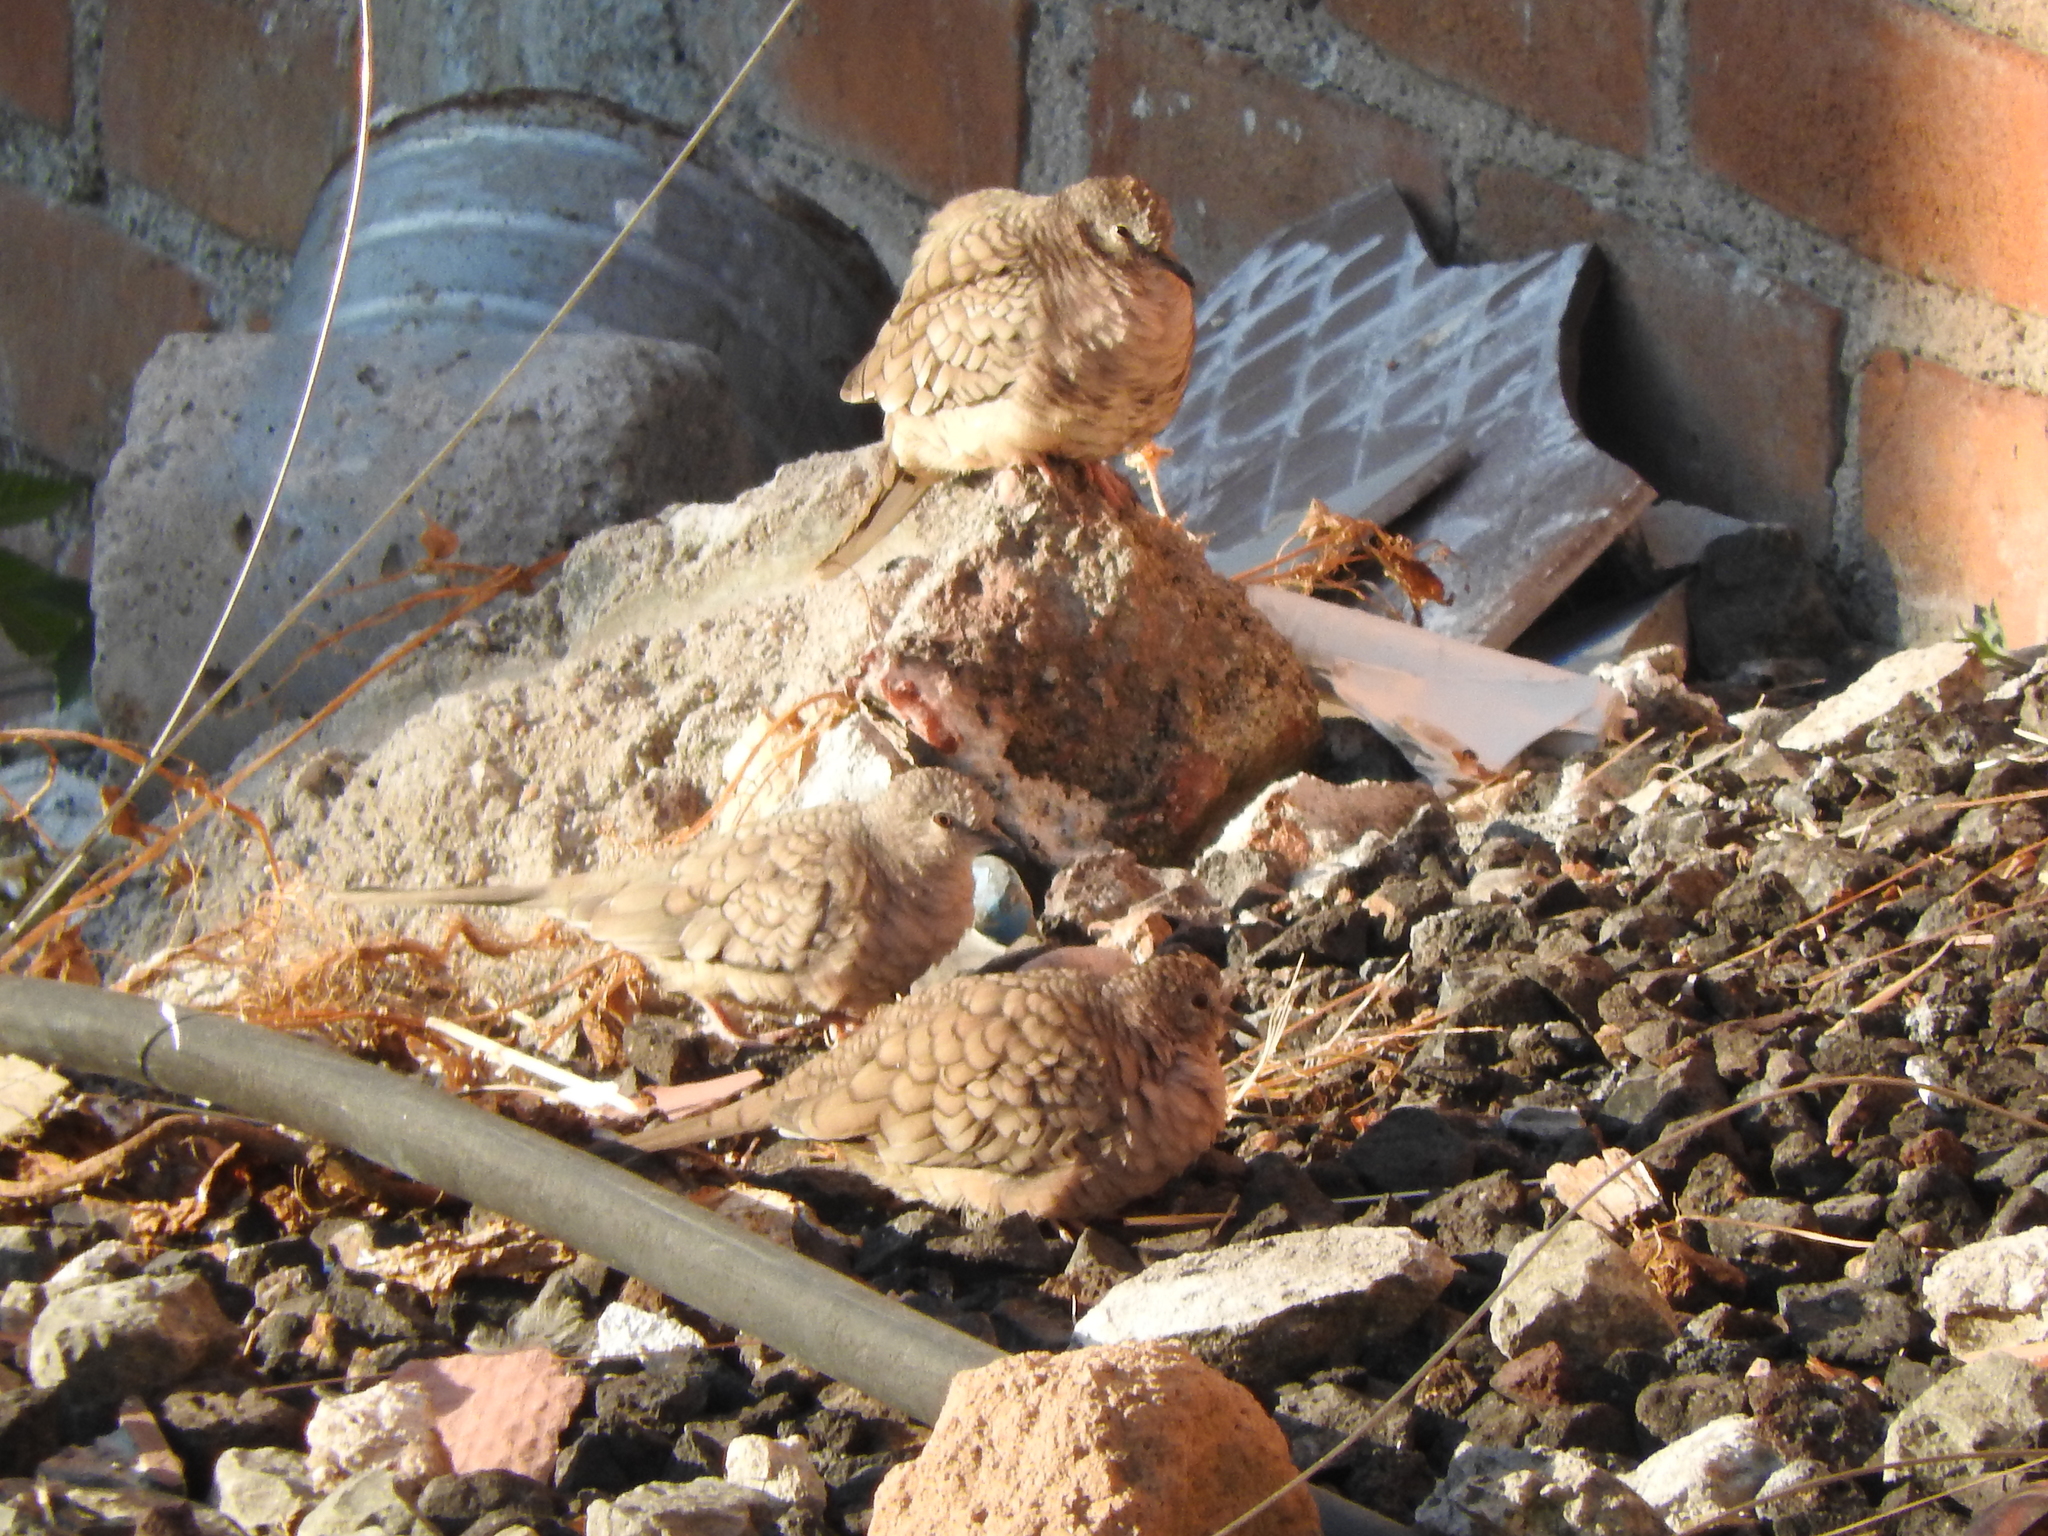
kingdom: Animalia
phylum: Chordata
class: Aves
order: Columbiformes
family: Columbidae
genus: Columbina
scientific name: Columbina inca
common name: Inca dove
